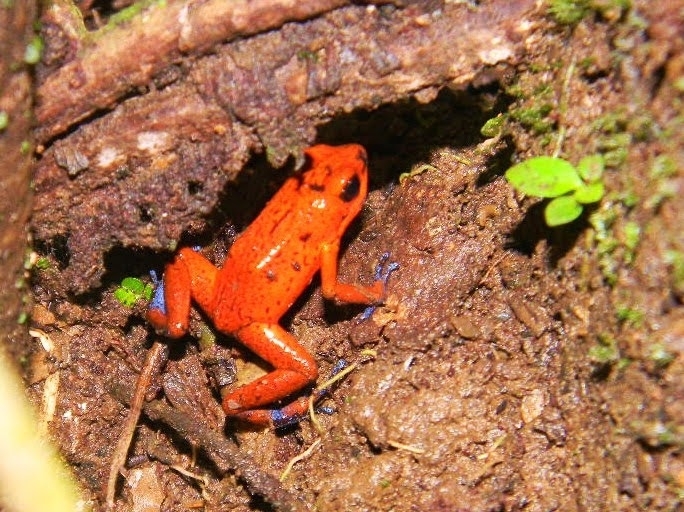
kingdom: Animalia
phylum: Chordata
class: Amphibia
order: Anura
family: Dendrobatidae
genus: Oophaga
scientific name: Oophaga pumilio
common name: Flaming poison frog
